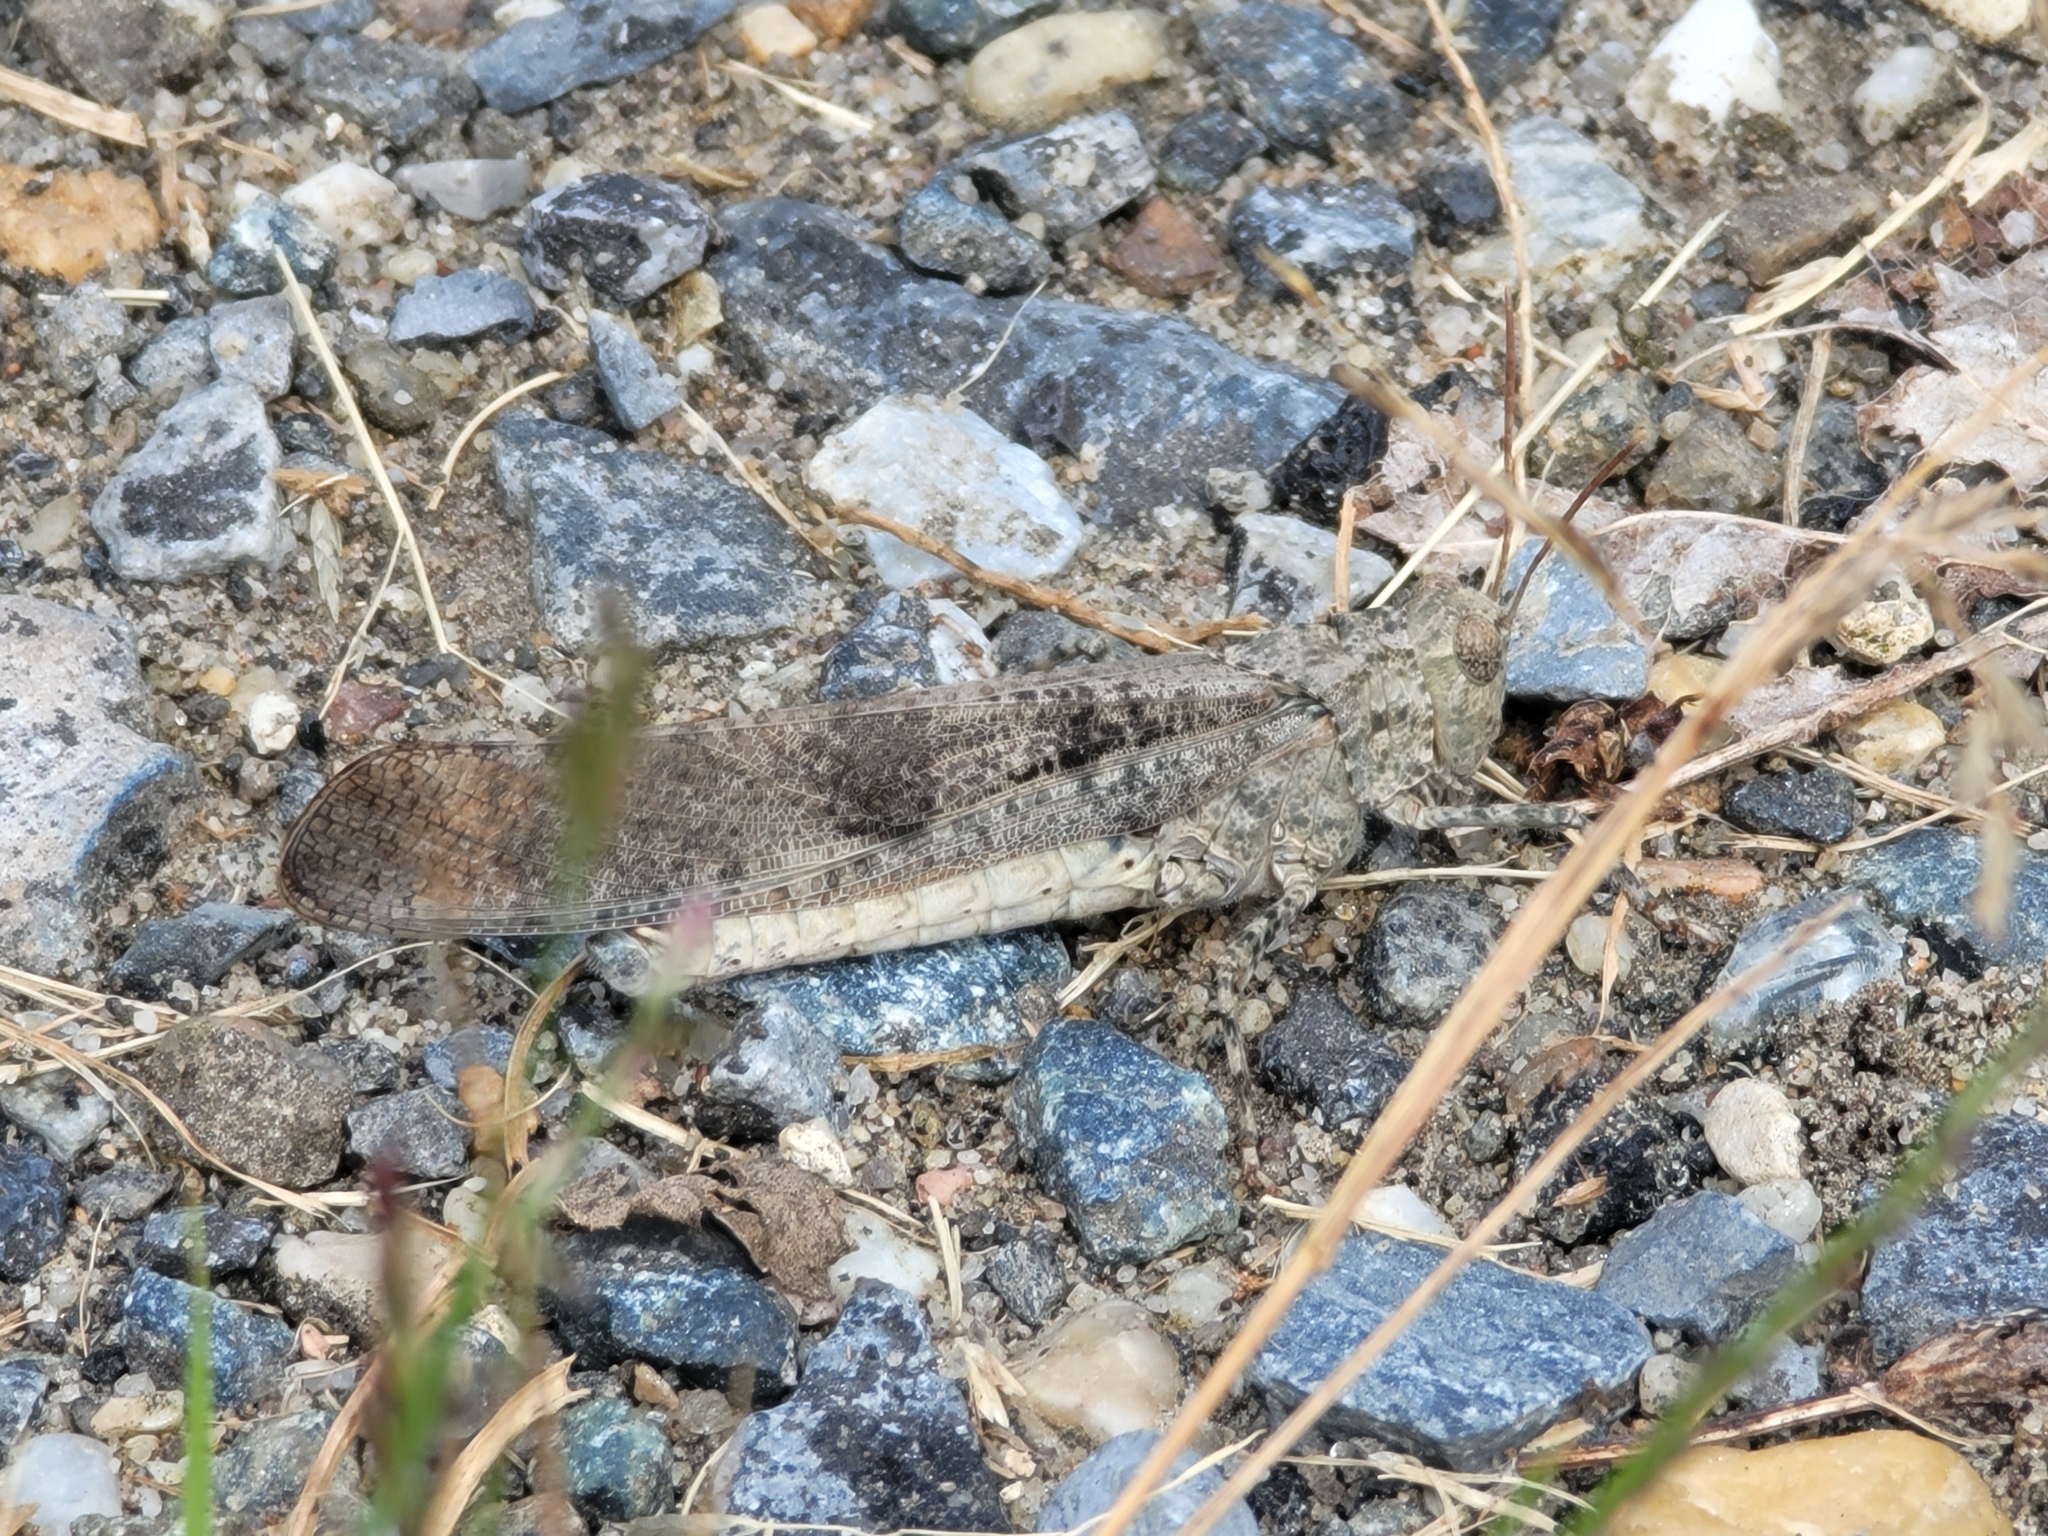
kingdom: Animalia
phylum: Arthropoda
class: Insecta
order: Orthoptera
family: Acrididae
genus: Dissosteira
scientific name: Dissosteira carolina
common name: Carolina grasshopper
